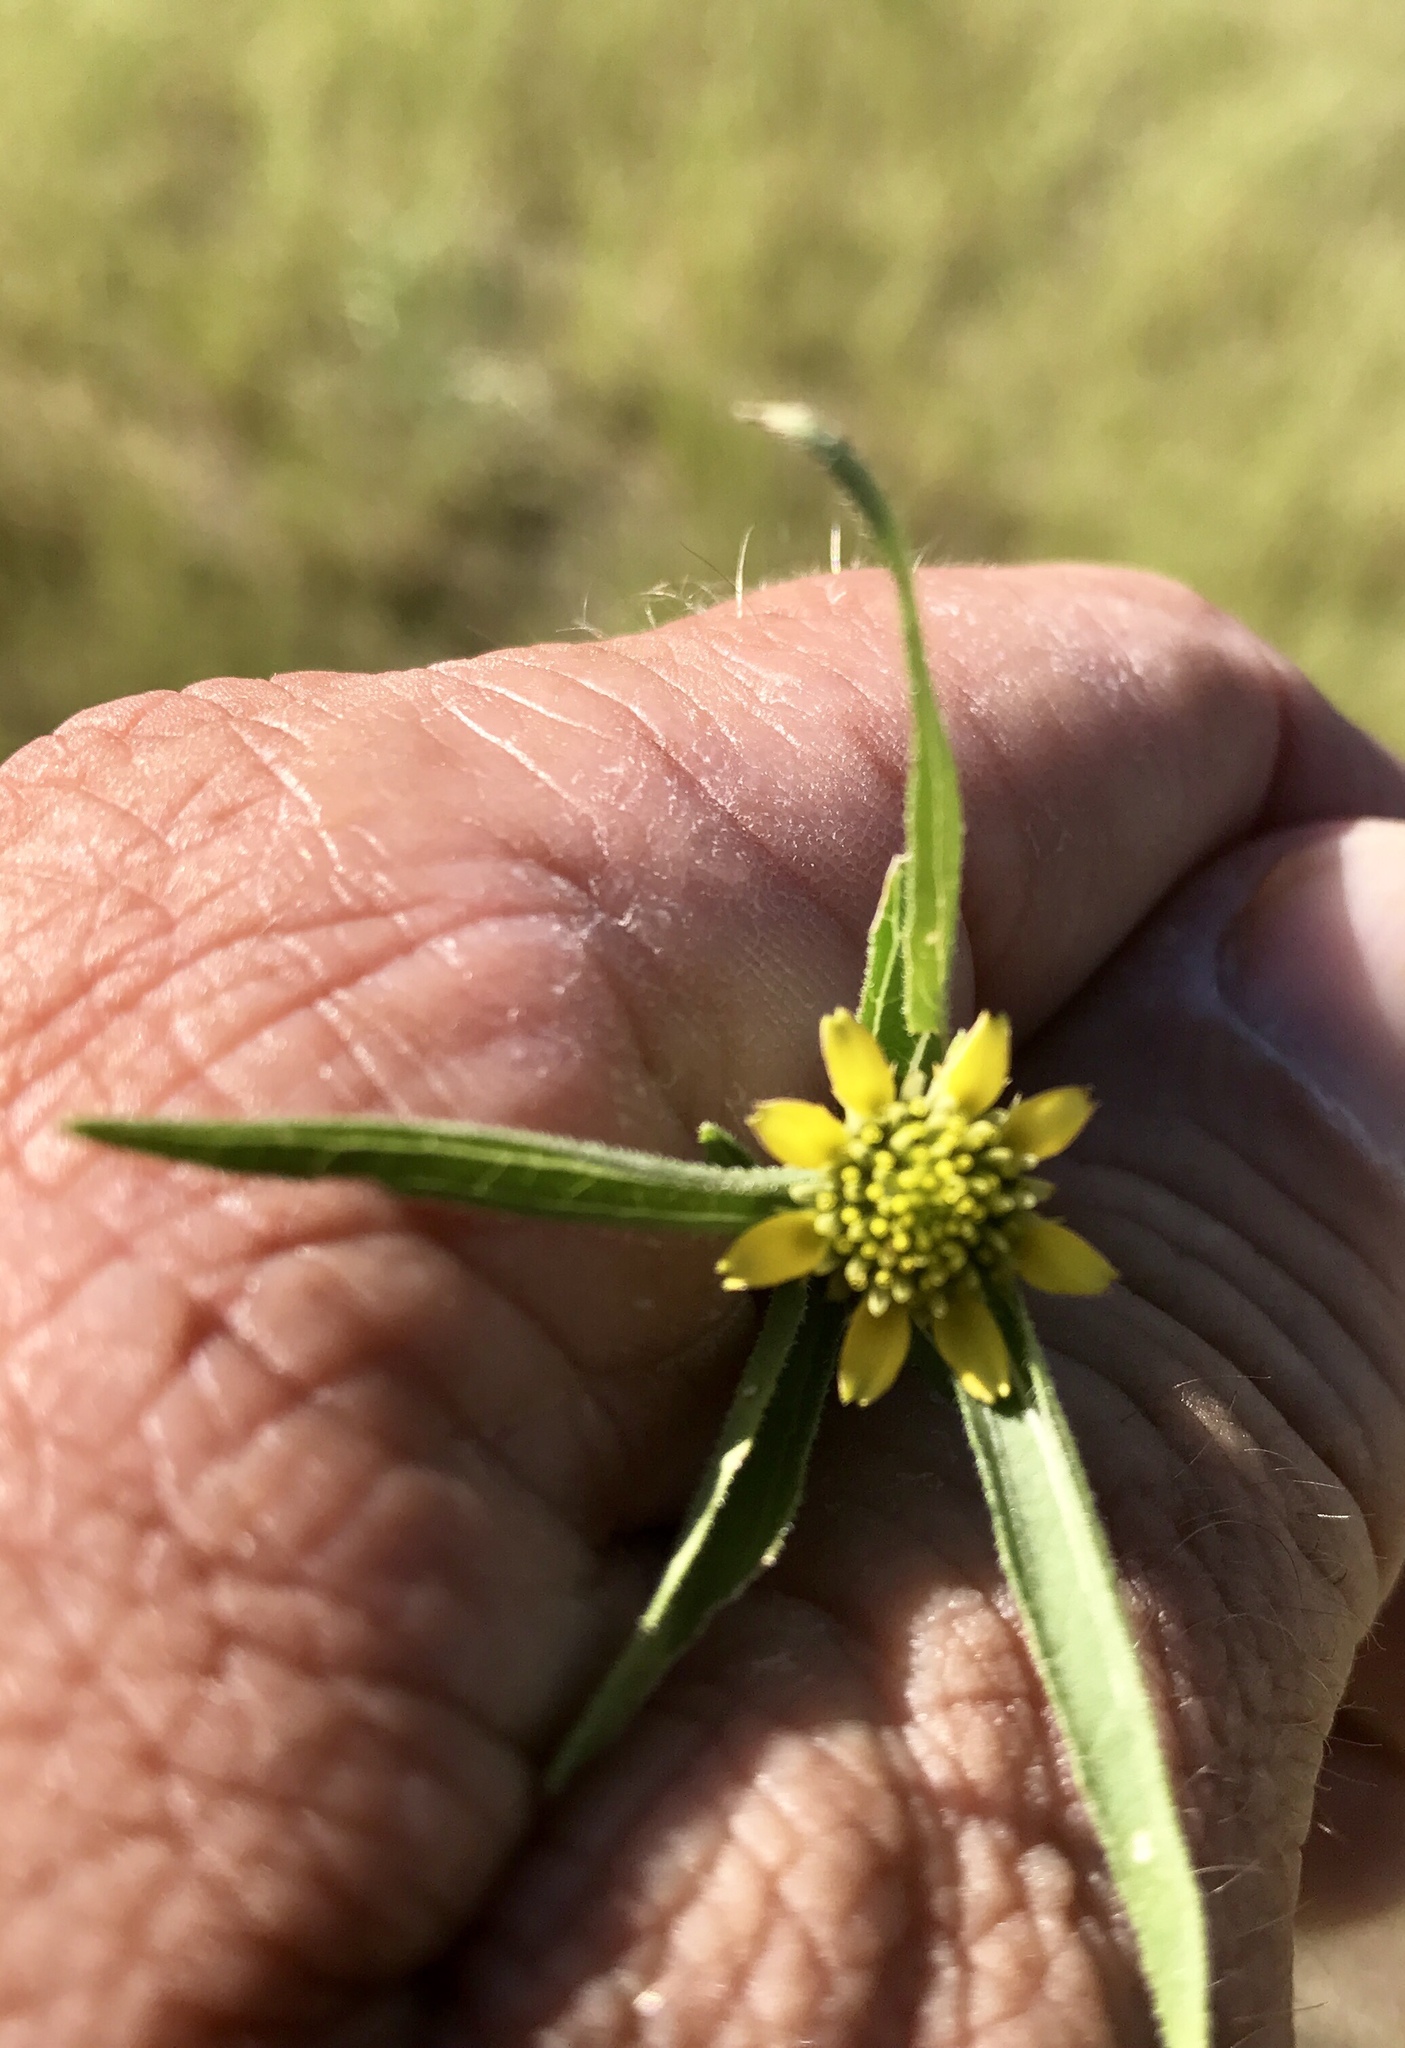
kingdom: Plantae
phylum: Tracheophyta
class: Magnoliopsida
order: Asterales
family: Asteraceae
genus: Sanvitalia
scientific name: Sanvitalia abertii
